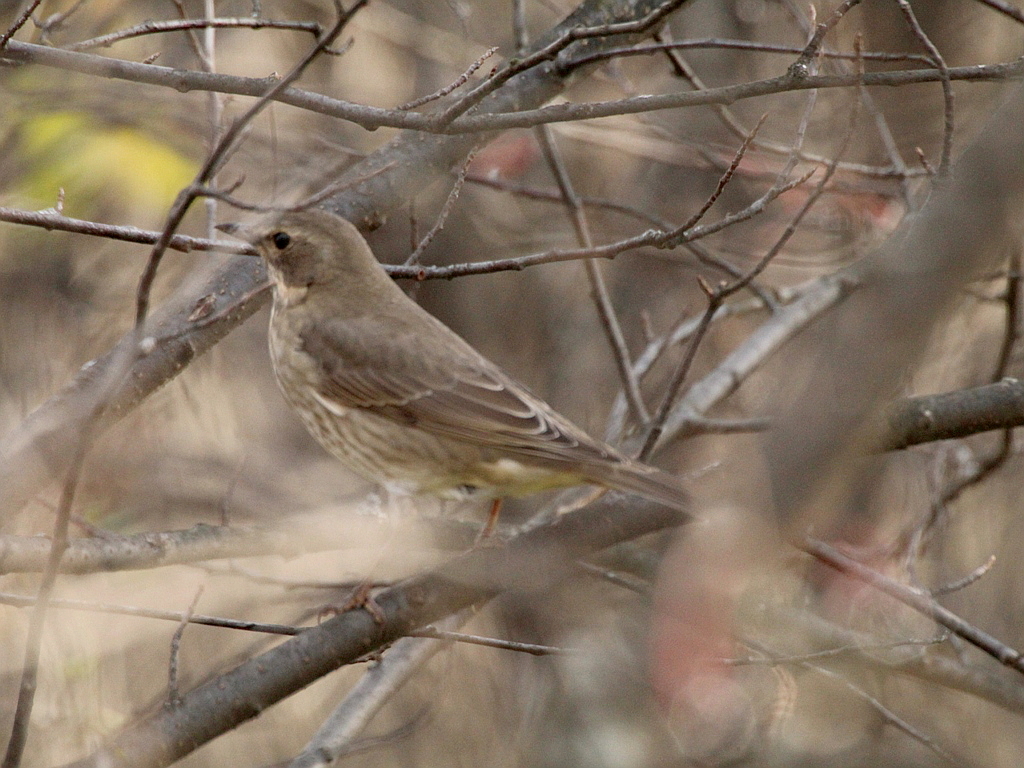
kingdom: Animalia
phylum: Chordata
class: Aves
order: Passeriformes
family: Turdidae
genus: Turdus
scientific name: Turdus atrogularis
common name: Black-throated thrush
